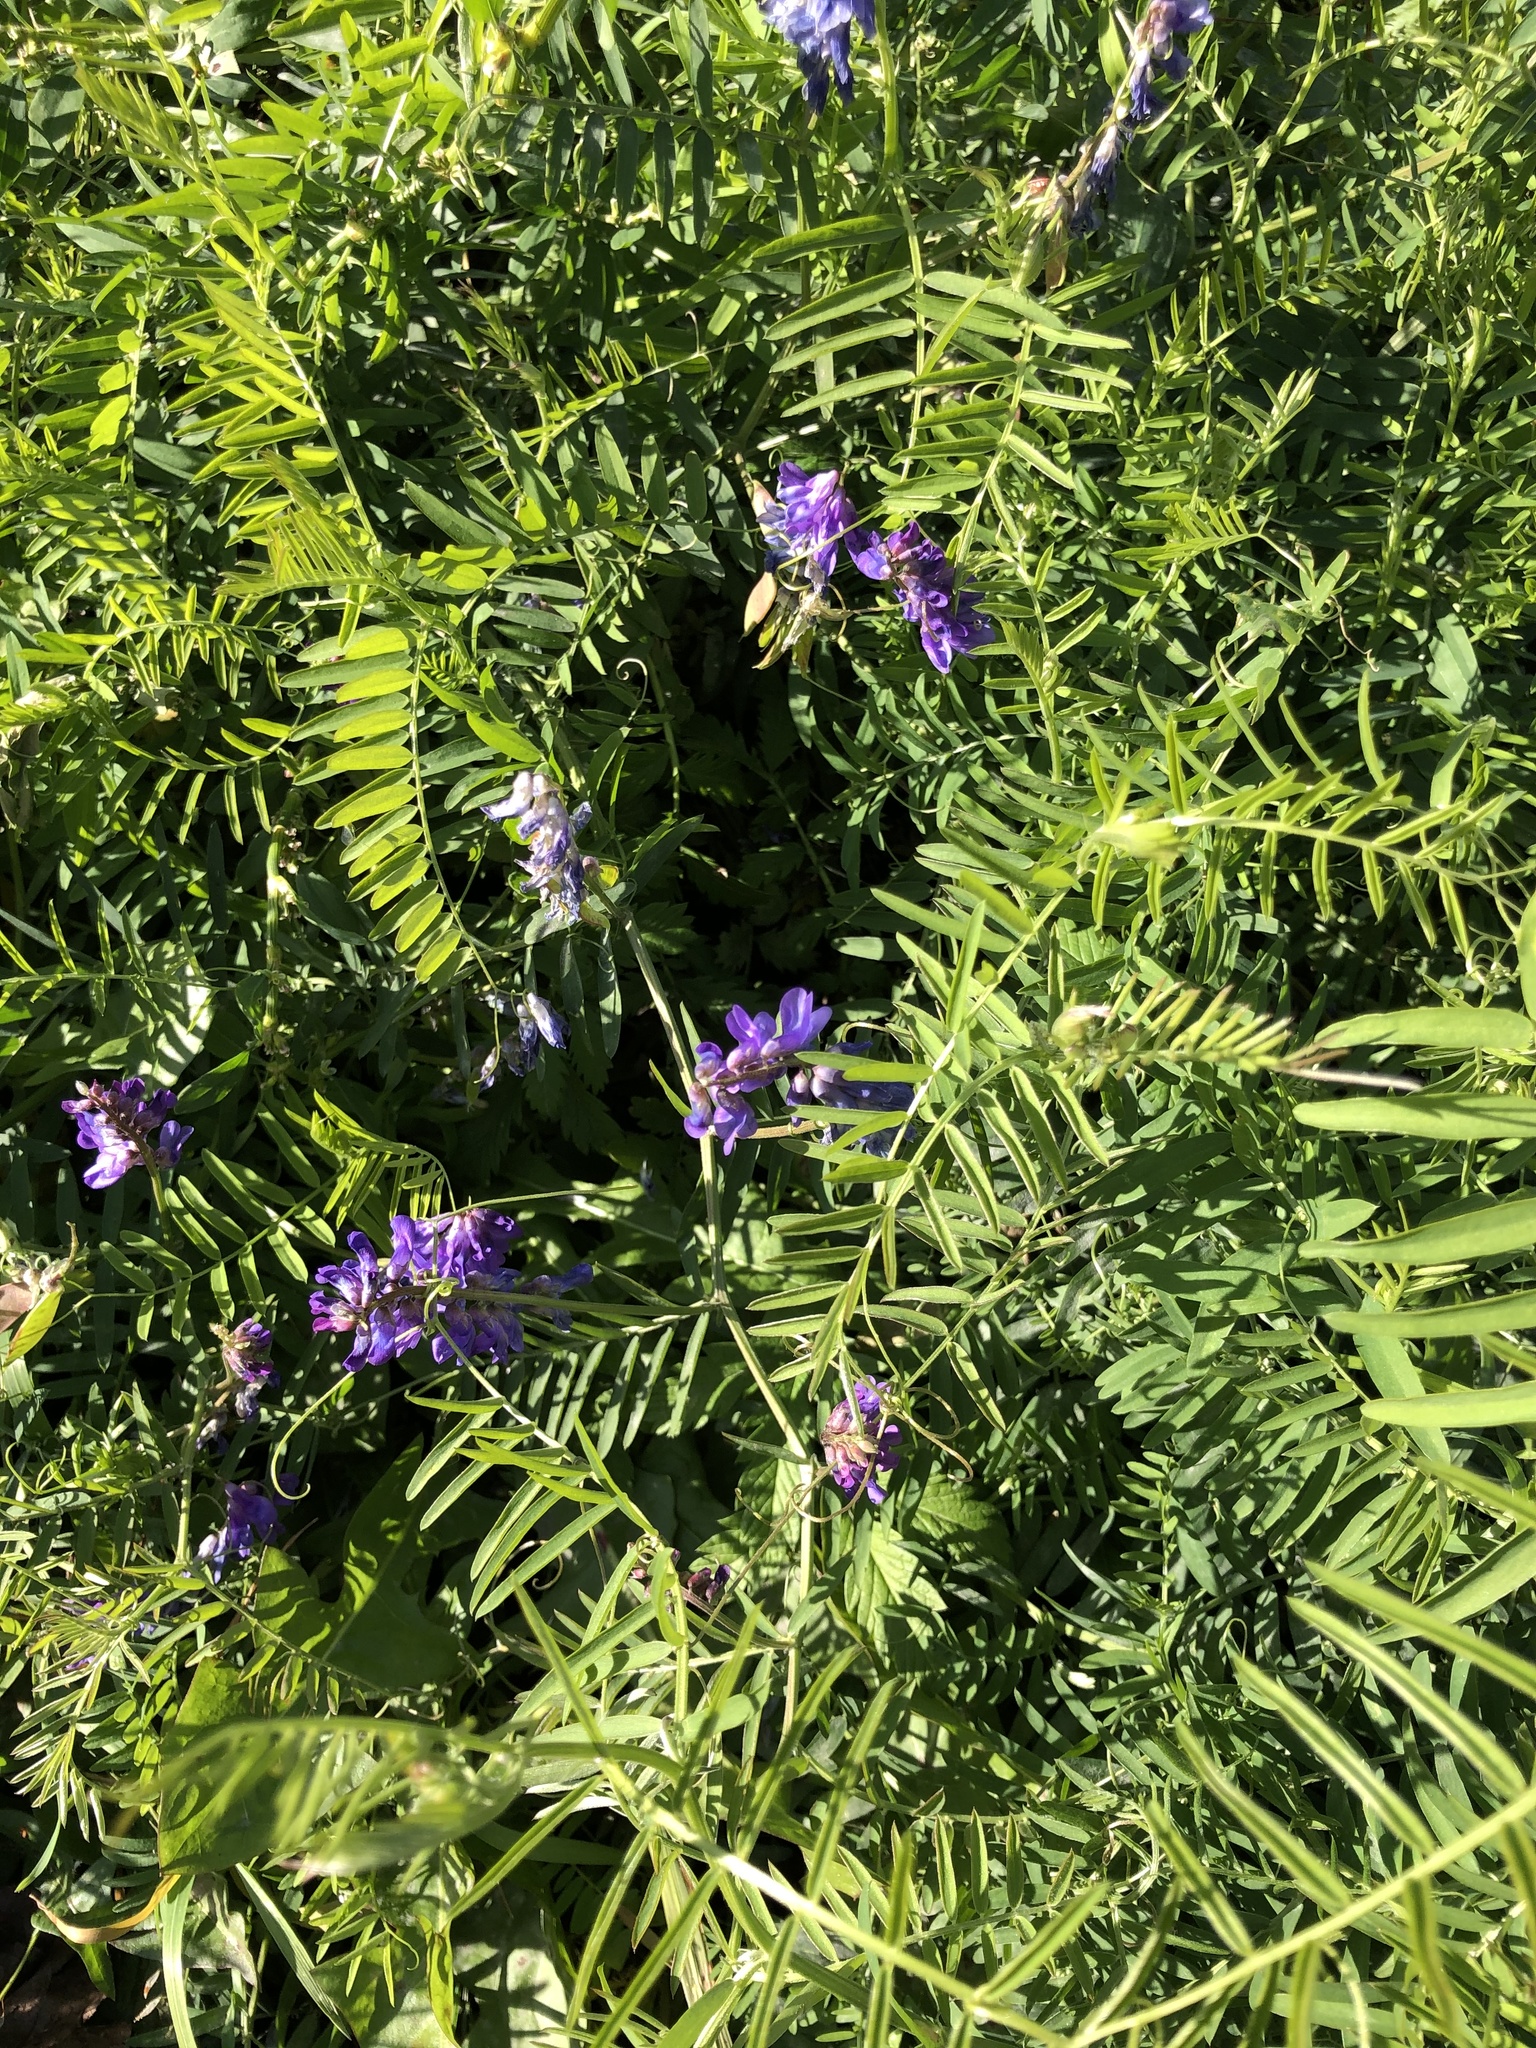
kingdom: Plantae
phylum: Tracheophyta
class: Magnoliopsida
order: Fabales
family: Fabaceae
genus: Vicia
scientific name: Vicia cracca
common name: Bird vetch
